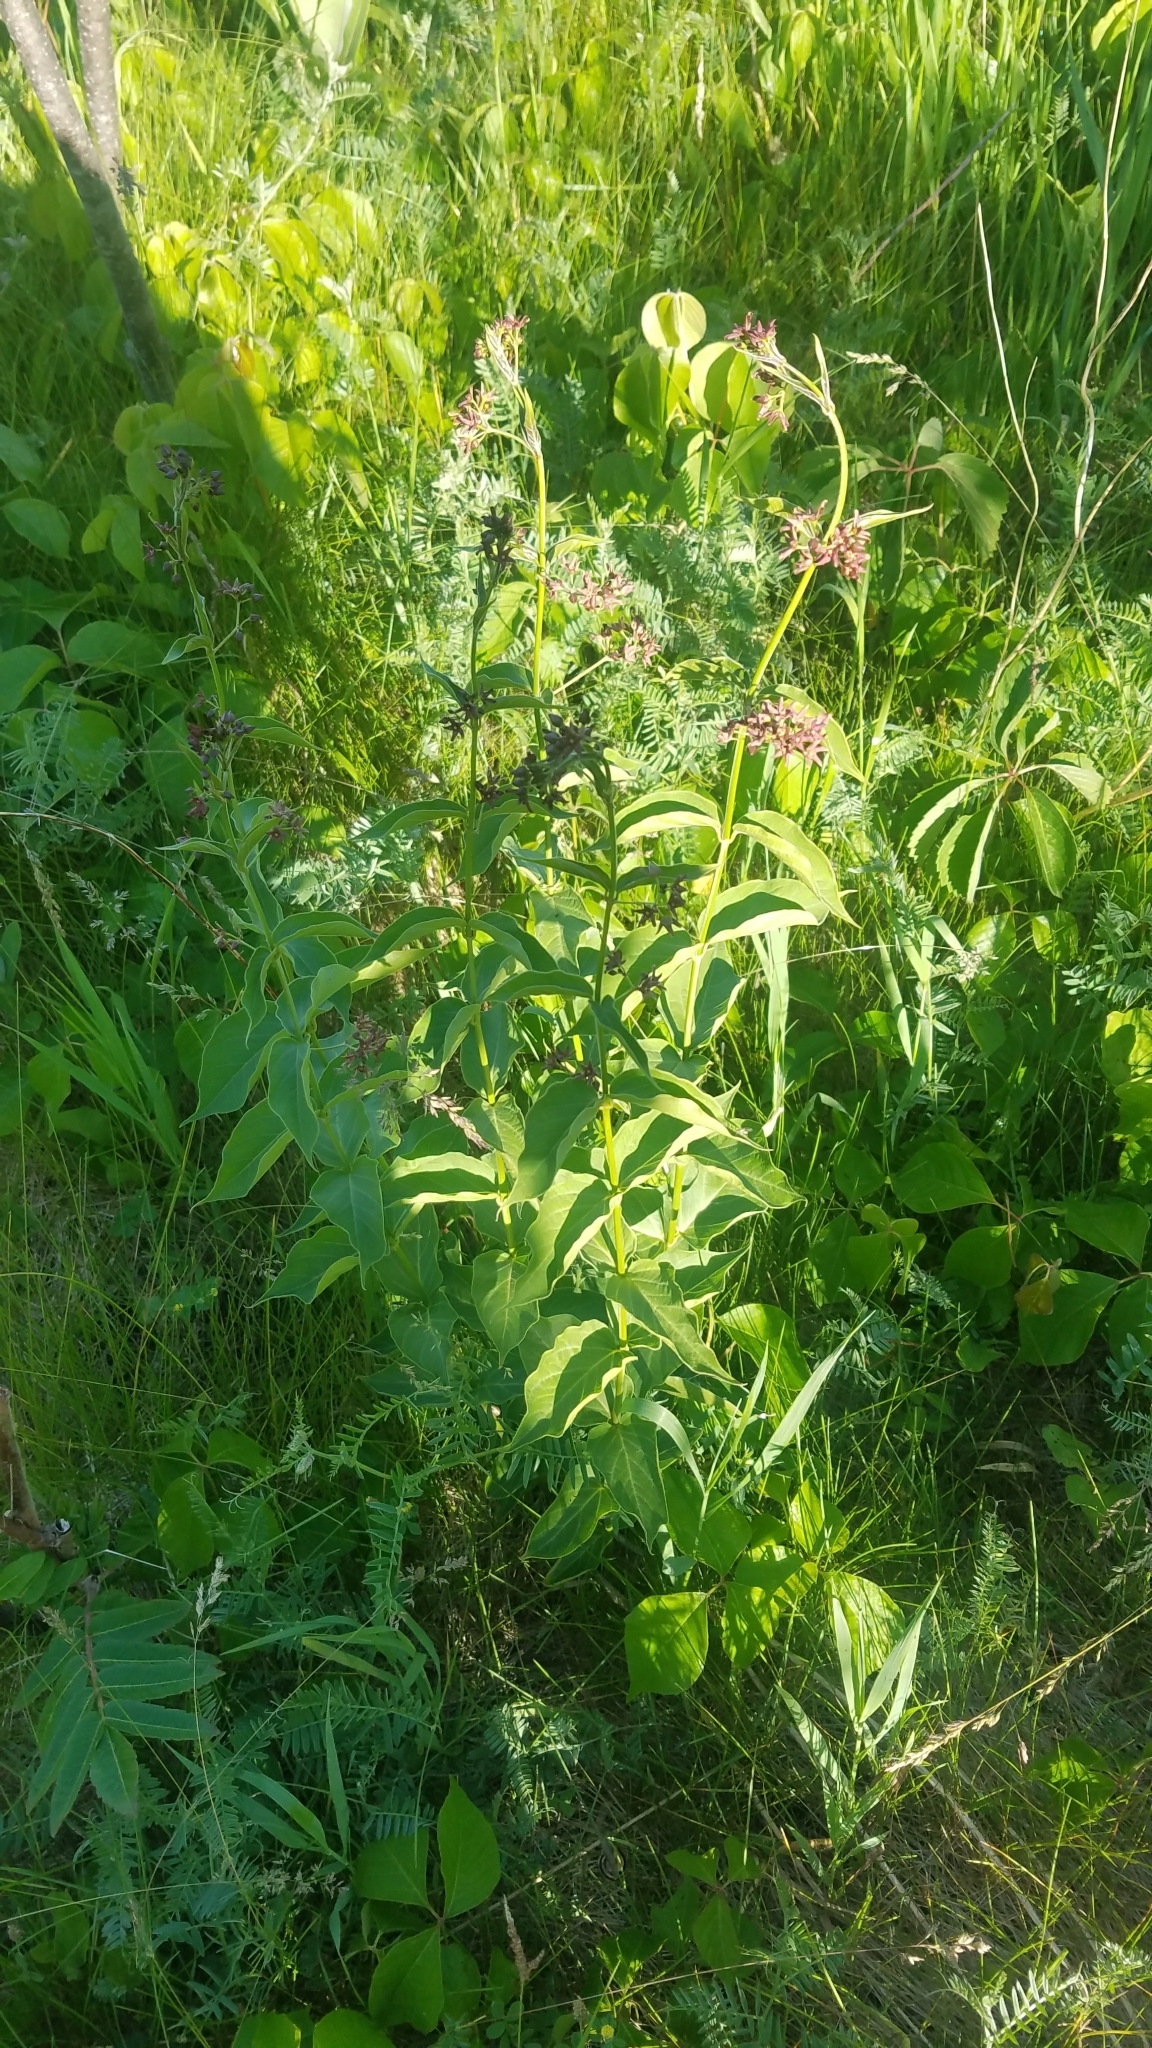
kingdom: Plantae
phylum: Tracheophyta
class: Magnoliopsida
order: Gentianales
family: Apocynaceae
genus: Vincetoxicum
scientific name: Vincetoxicum rossicum
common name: Dog-strangling vine
